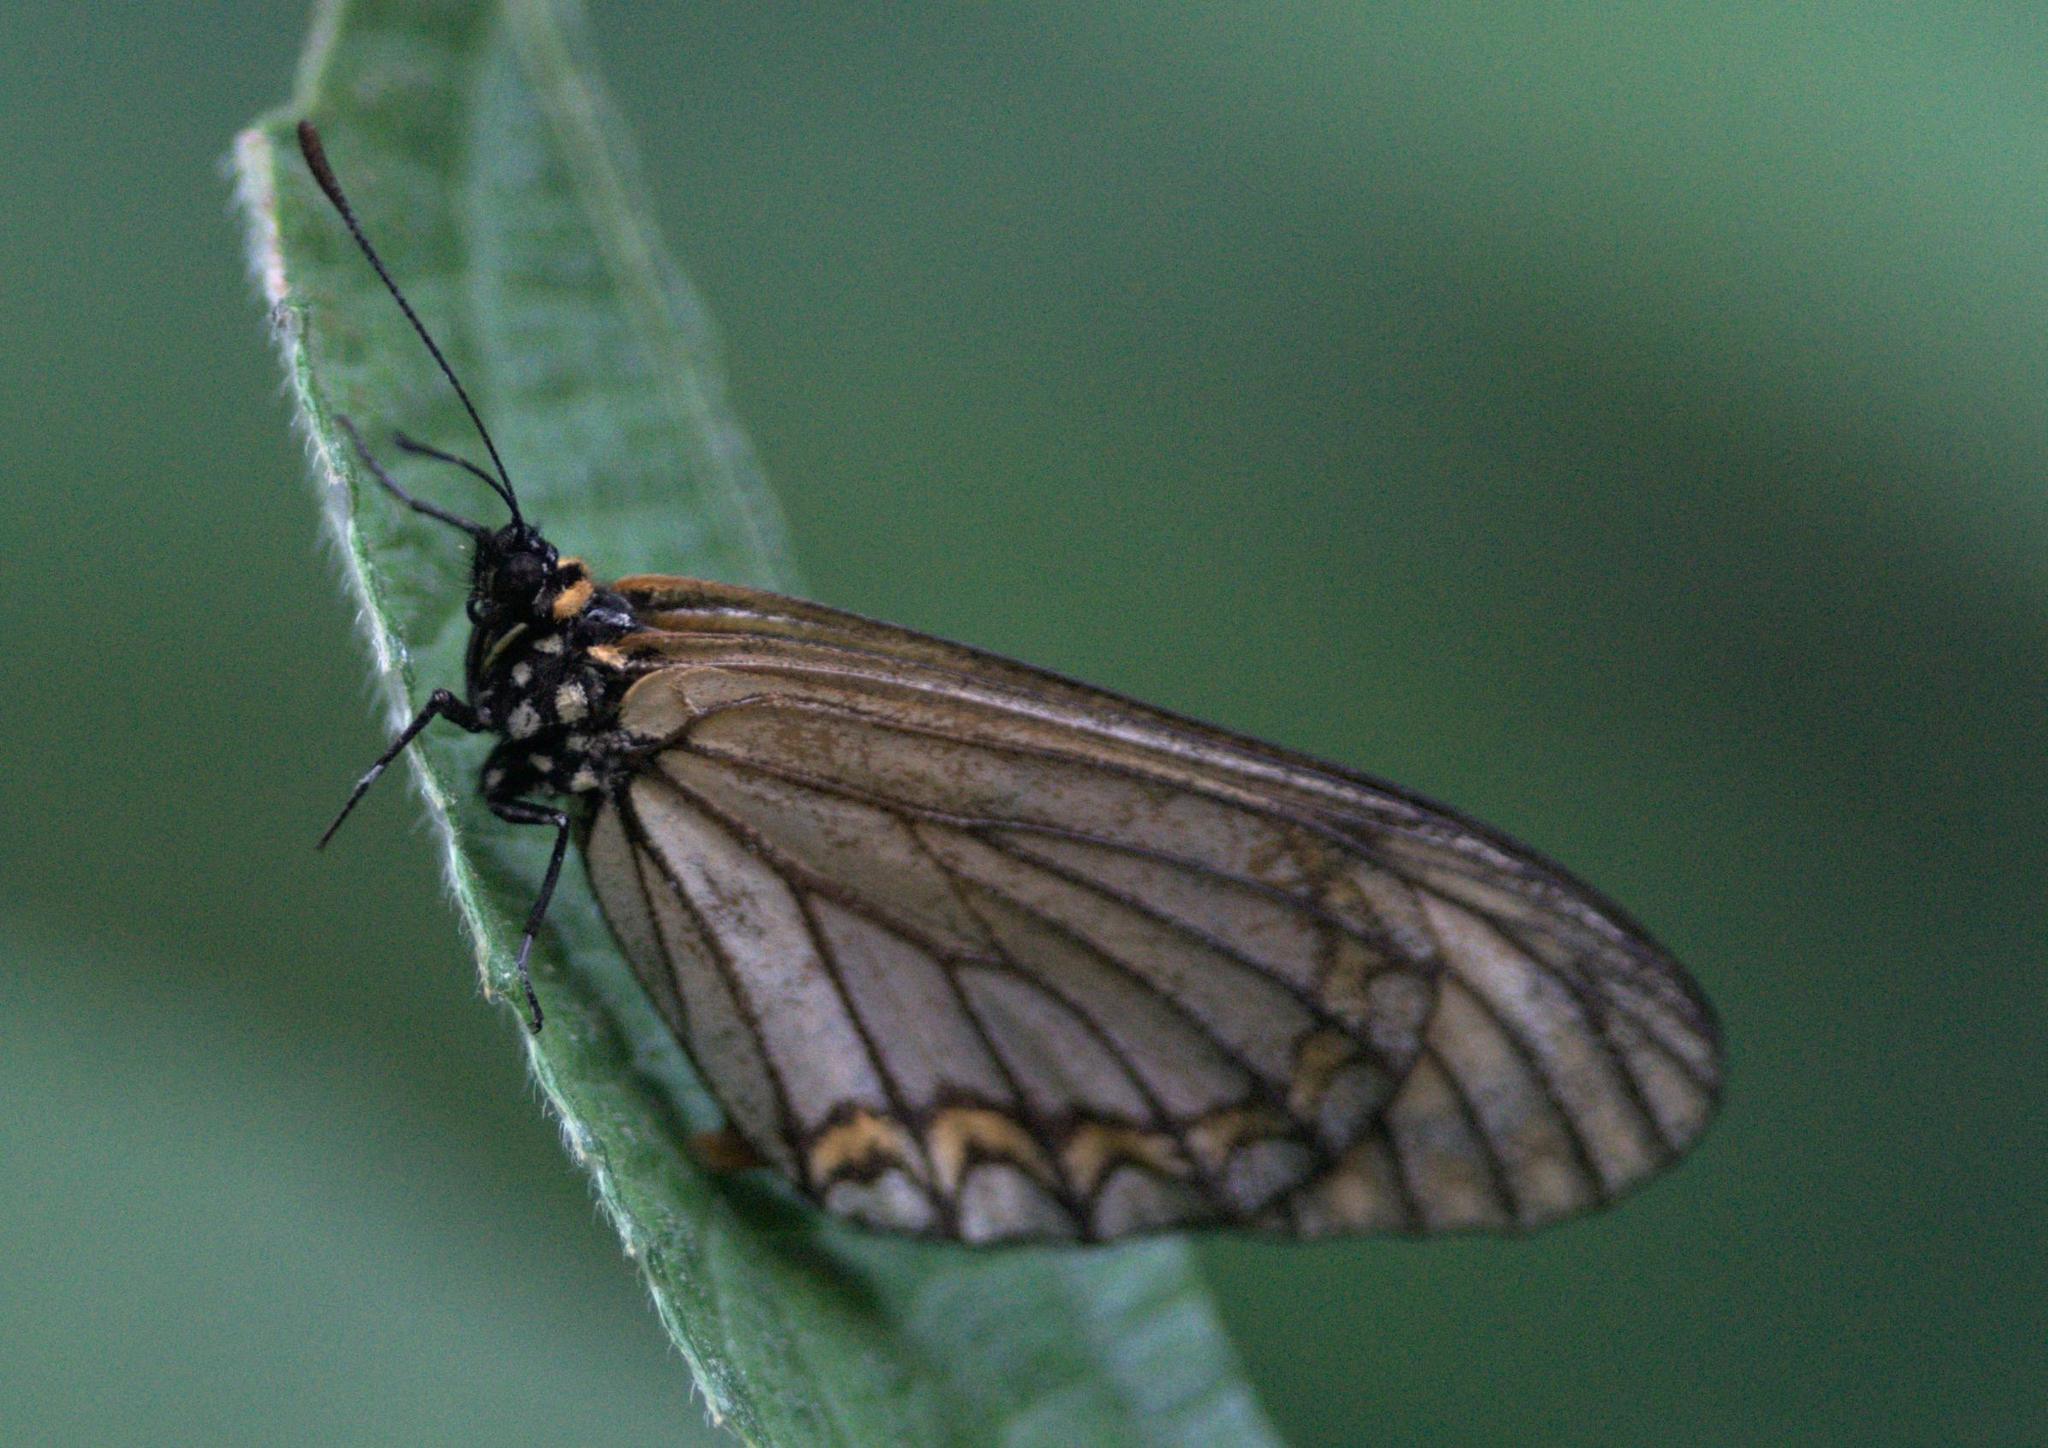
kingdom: Animalia
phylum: Arthropoda
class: Insecta
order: Lepidoptera
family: Nymphalidae
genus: Acraea
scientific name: Acraea Telchinia issoria
